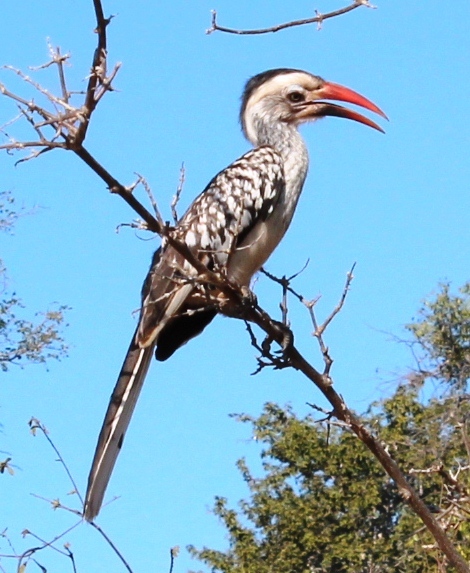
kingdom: Animalia
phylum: Chordata
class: Aves
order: Bucerotiformes
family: Bucerotidae
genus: Tockus
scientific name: Tockus rufirostris
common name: Southern red-billed hornbill
